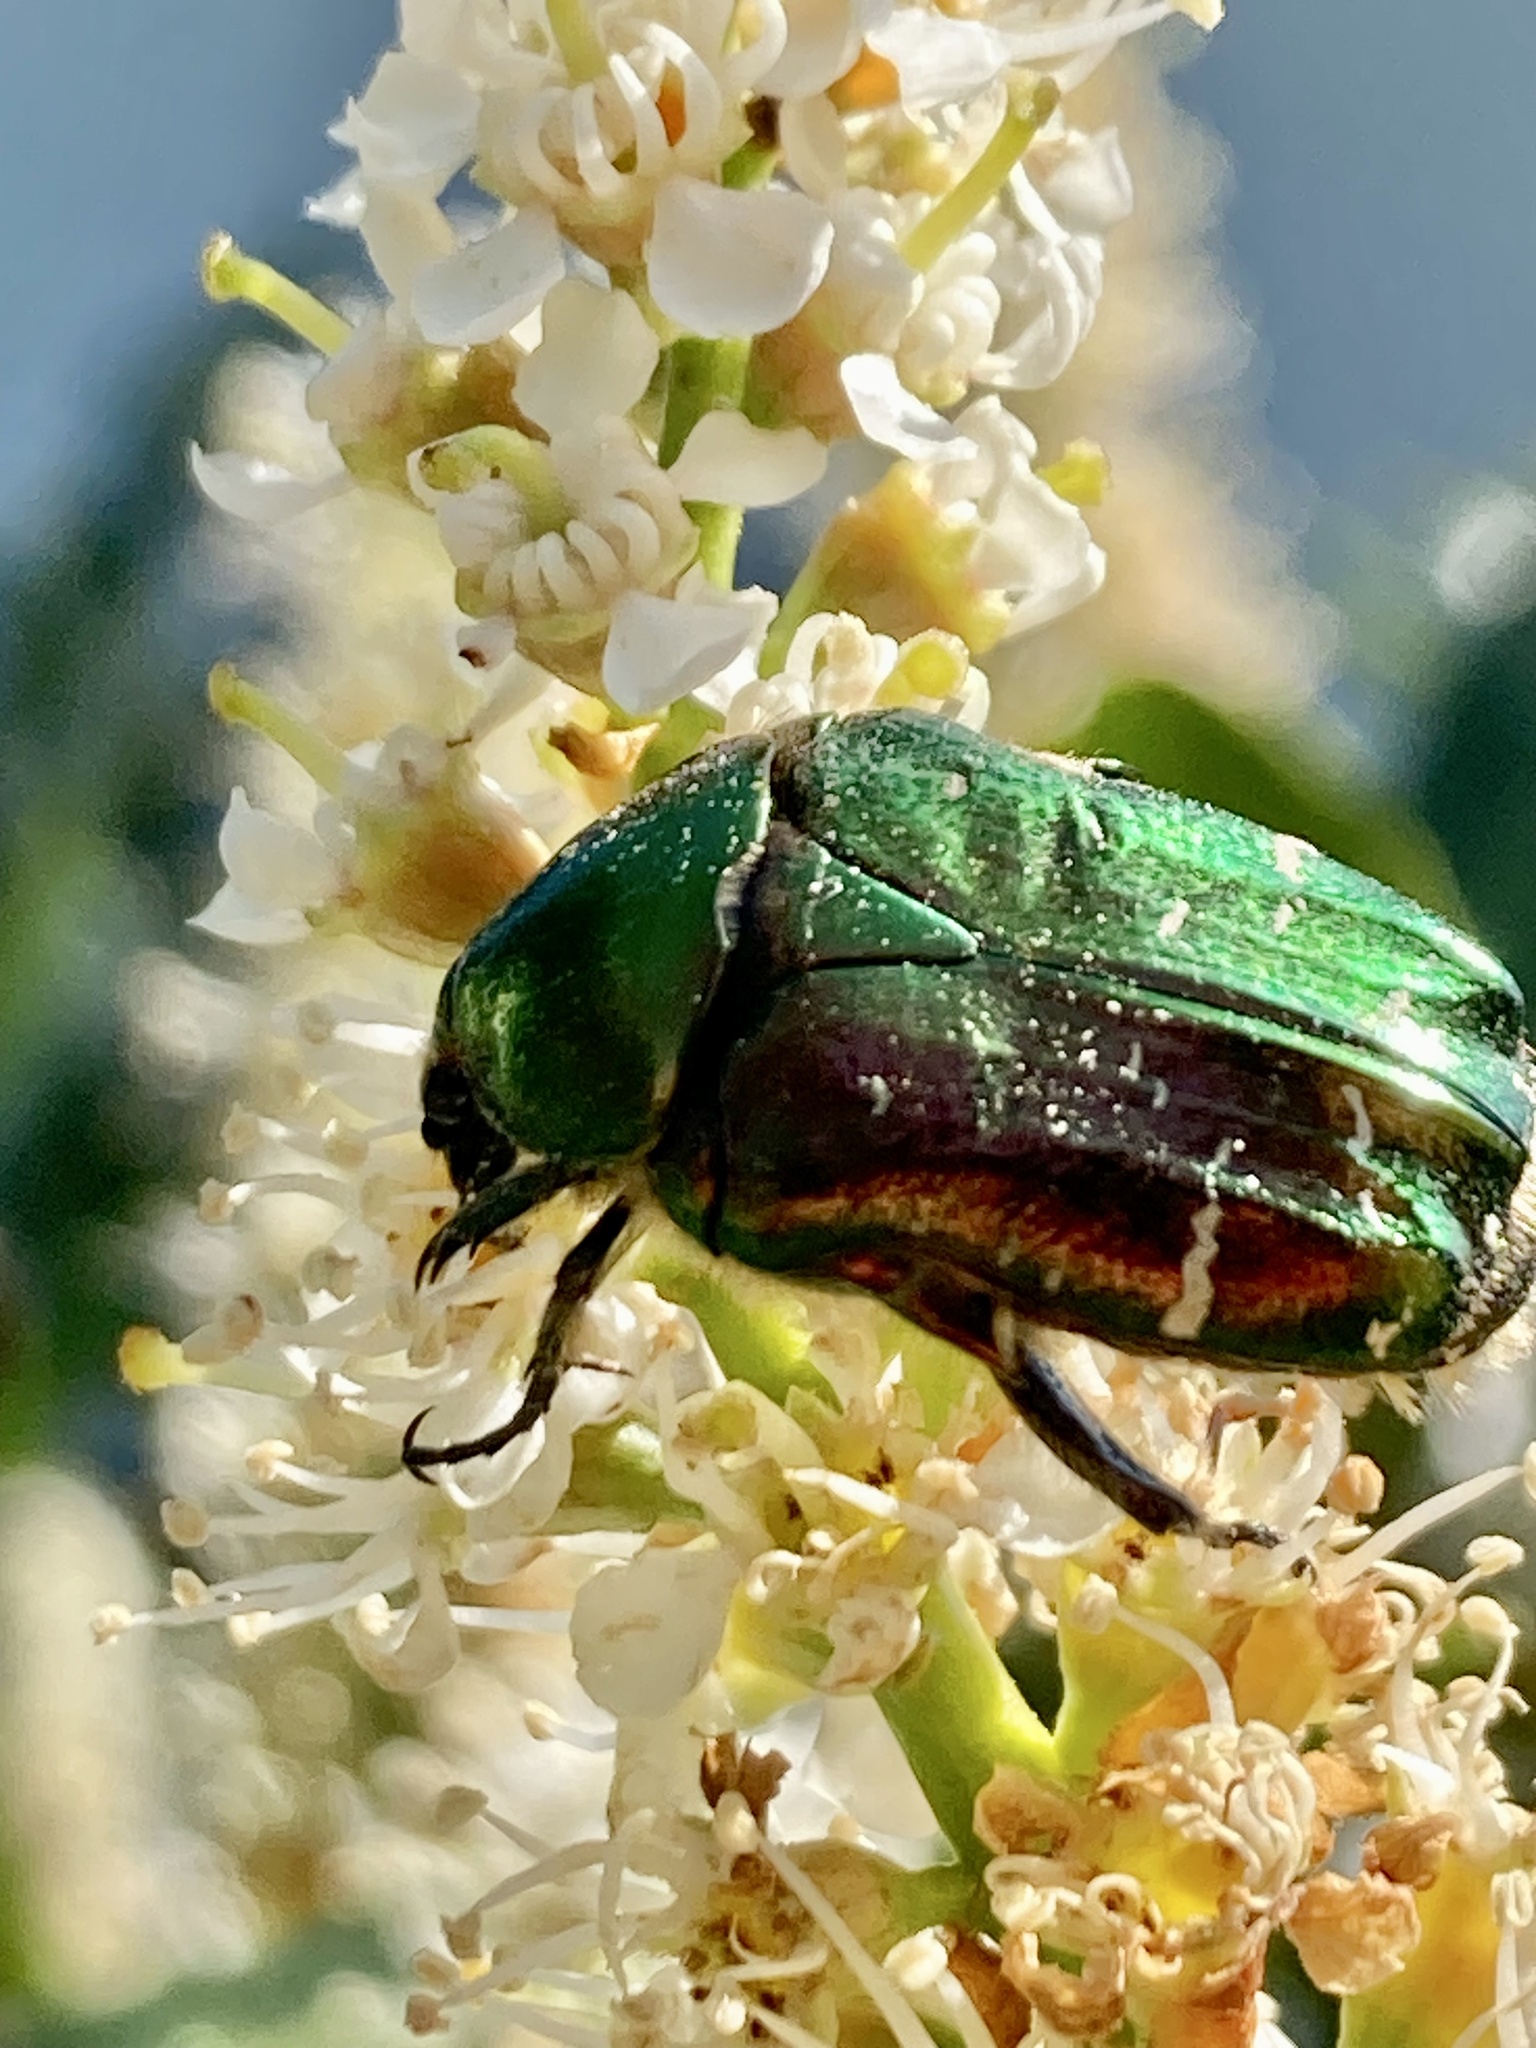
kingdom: Animalia
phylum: Arthropoda
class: Insecta
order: Coleoptera
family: Scarabaeidae
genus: Cetonia
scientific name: Cetonia aurata
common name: Rose chafer
